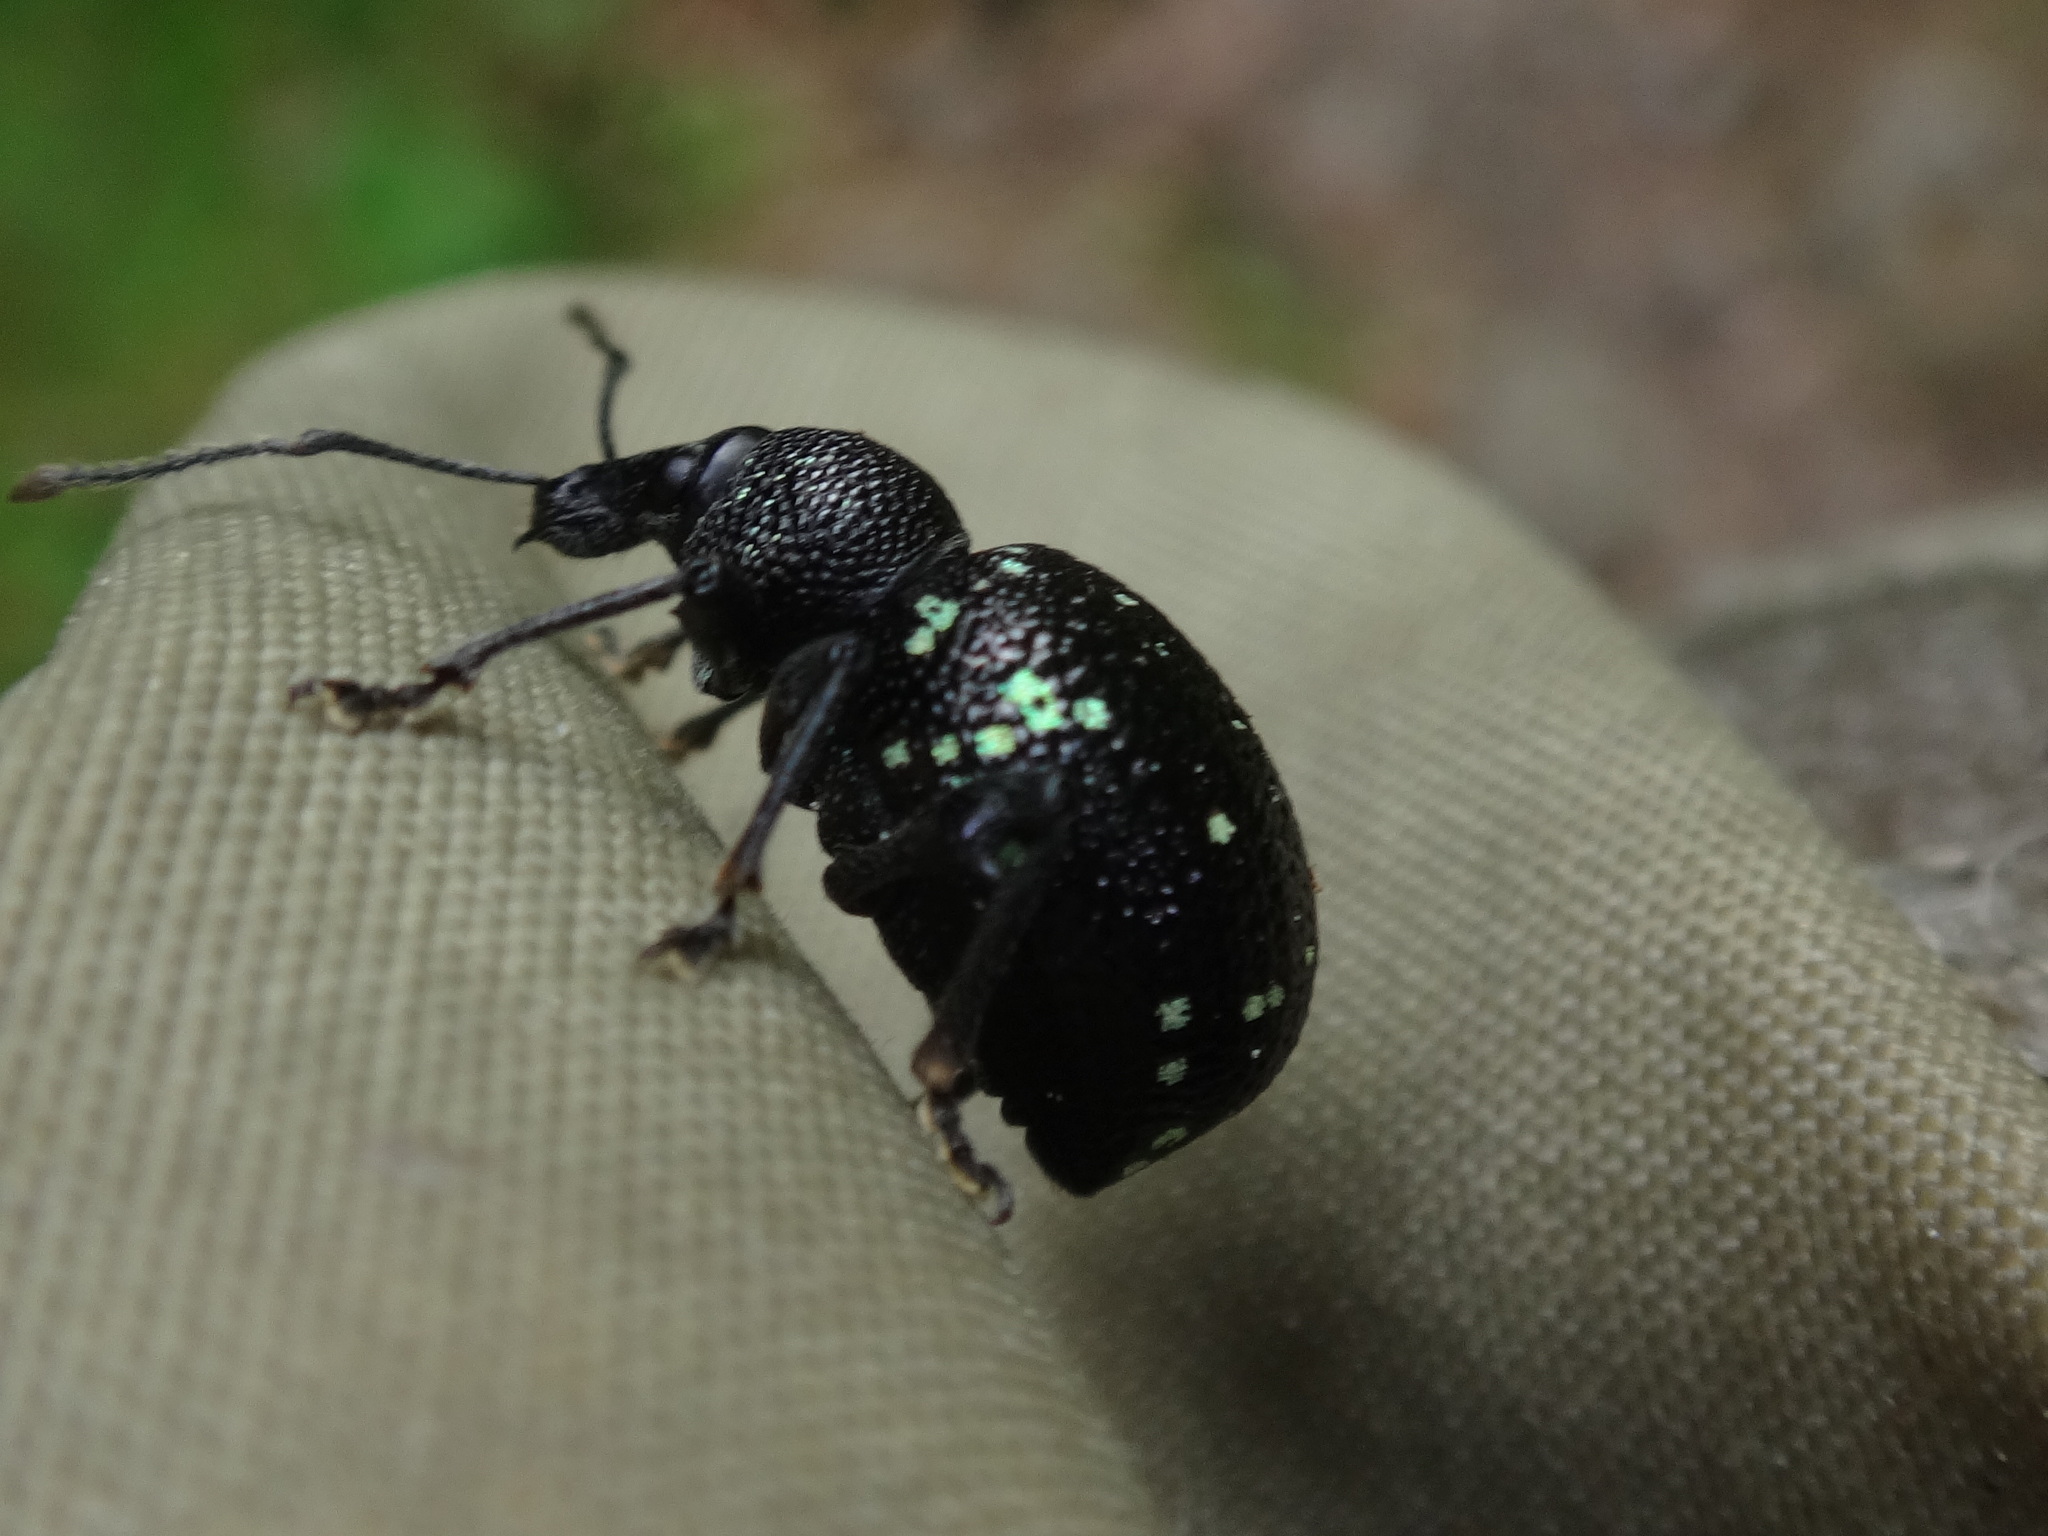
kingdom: Animalia
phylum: Arthropoda
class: Insecta
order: Coleoptera
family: Curculionidae
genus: Otiorhynchus
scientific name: Otiorhynchus gemmatus
